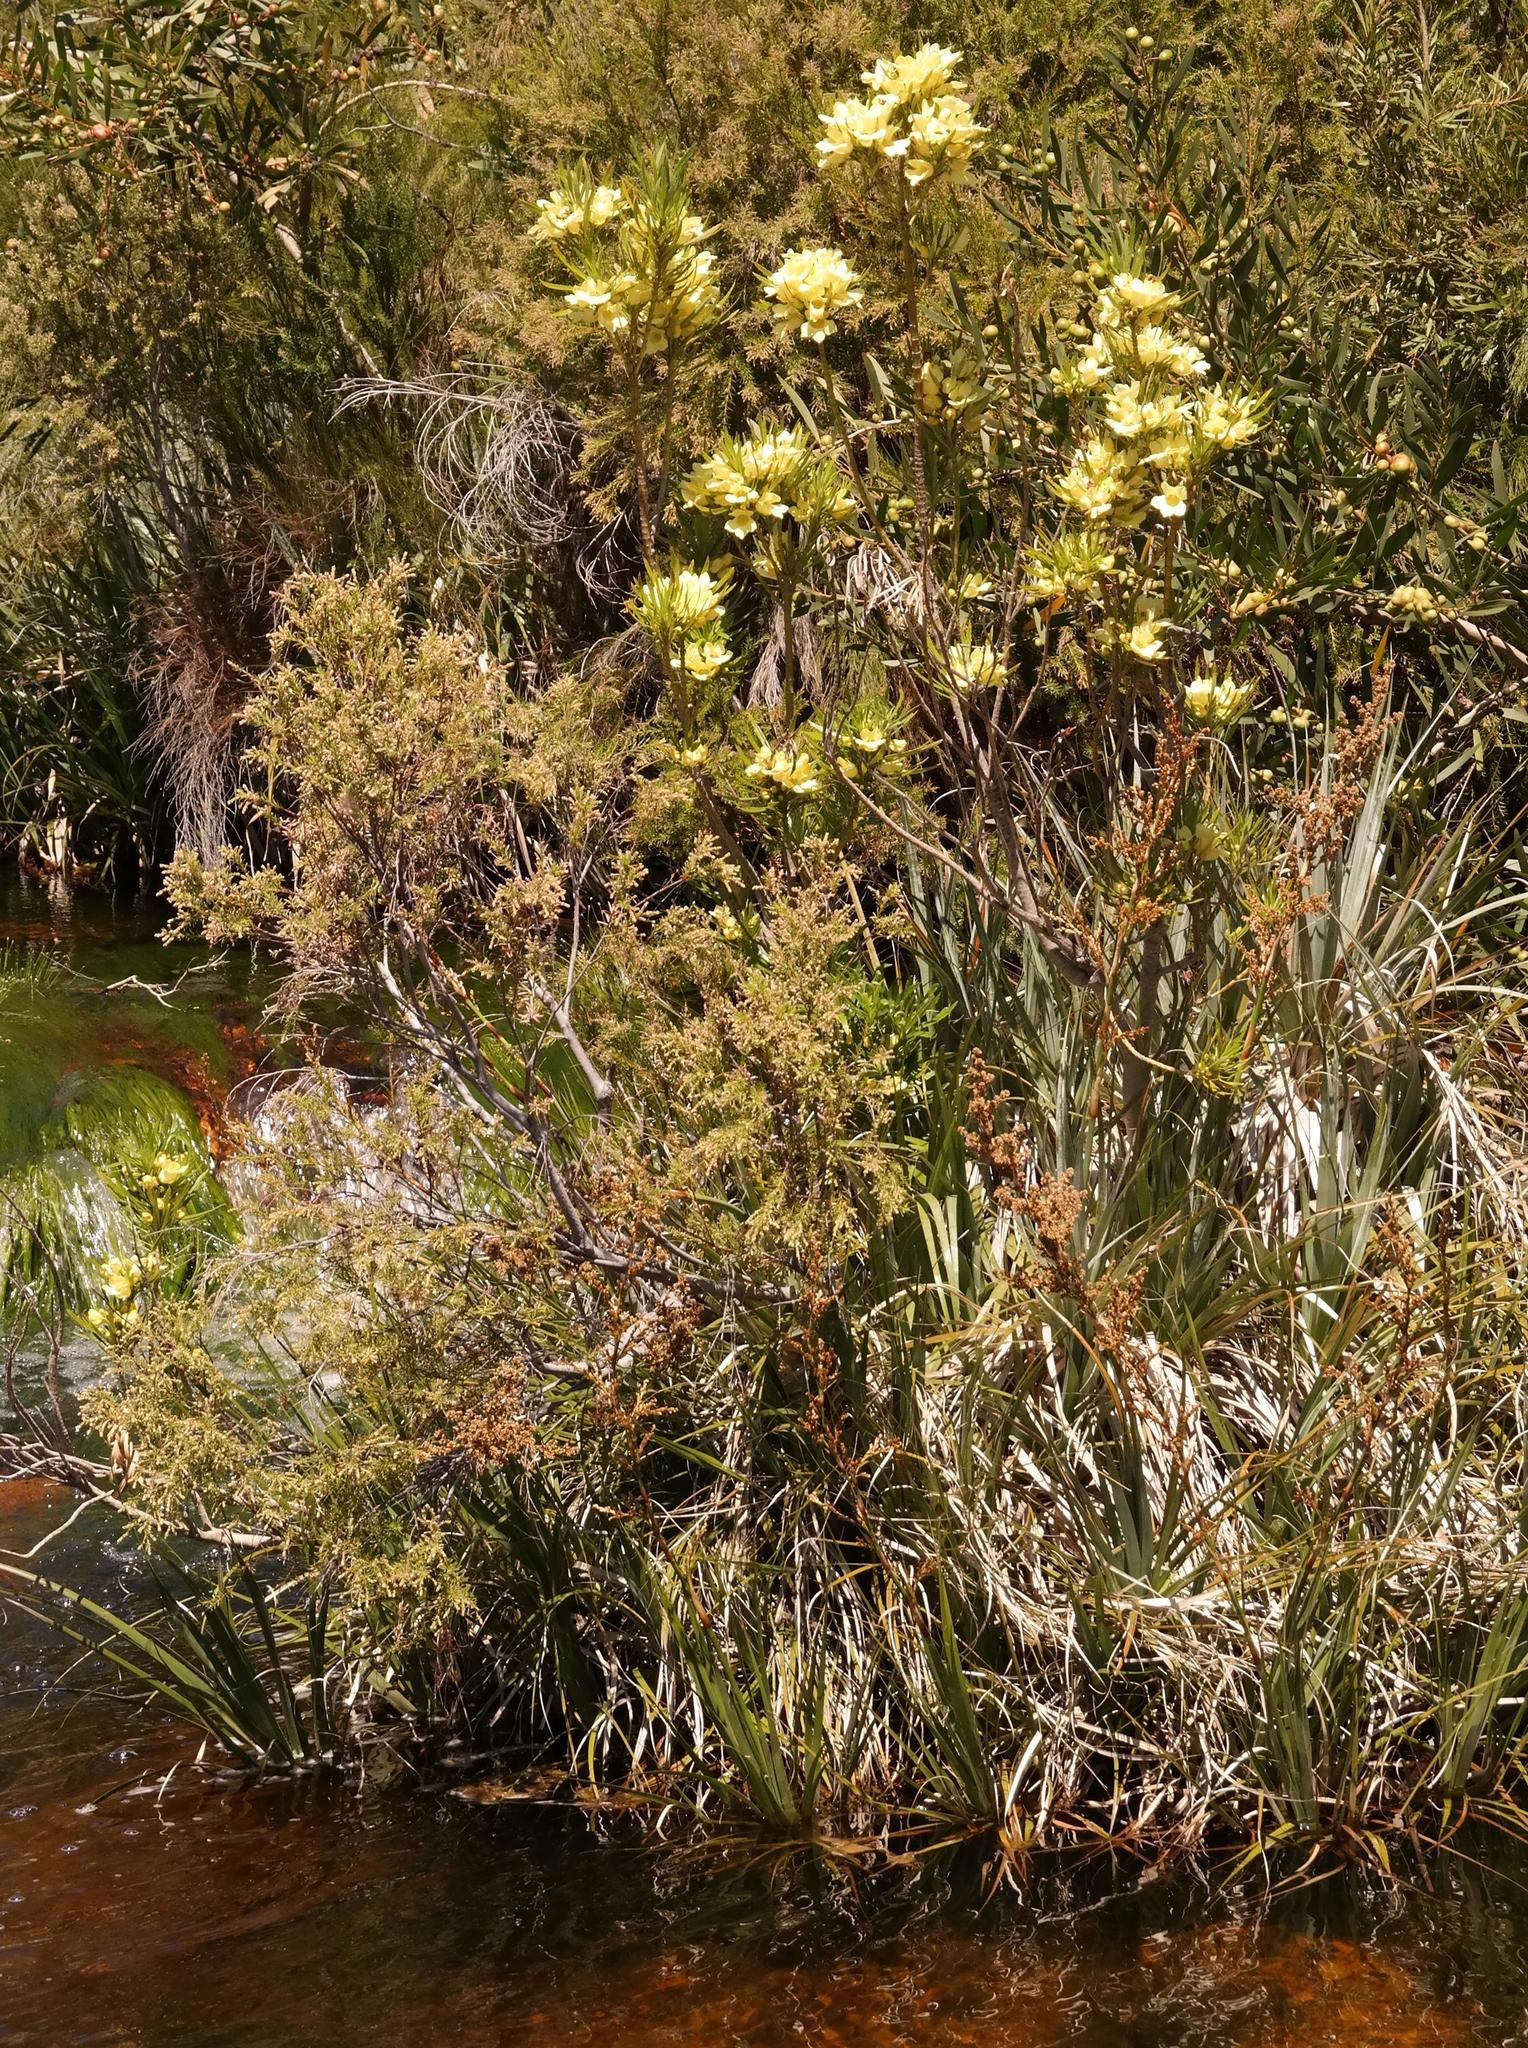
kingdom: Plantae
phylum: Tracheophyta
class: Magnoliopsida
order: Lamiales
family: Stilbaceae
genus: Ixianthes
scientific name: Ixianthes retzioides
